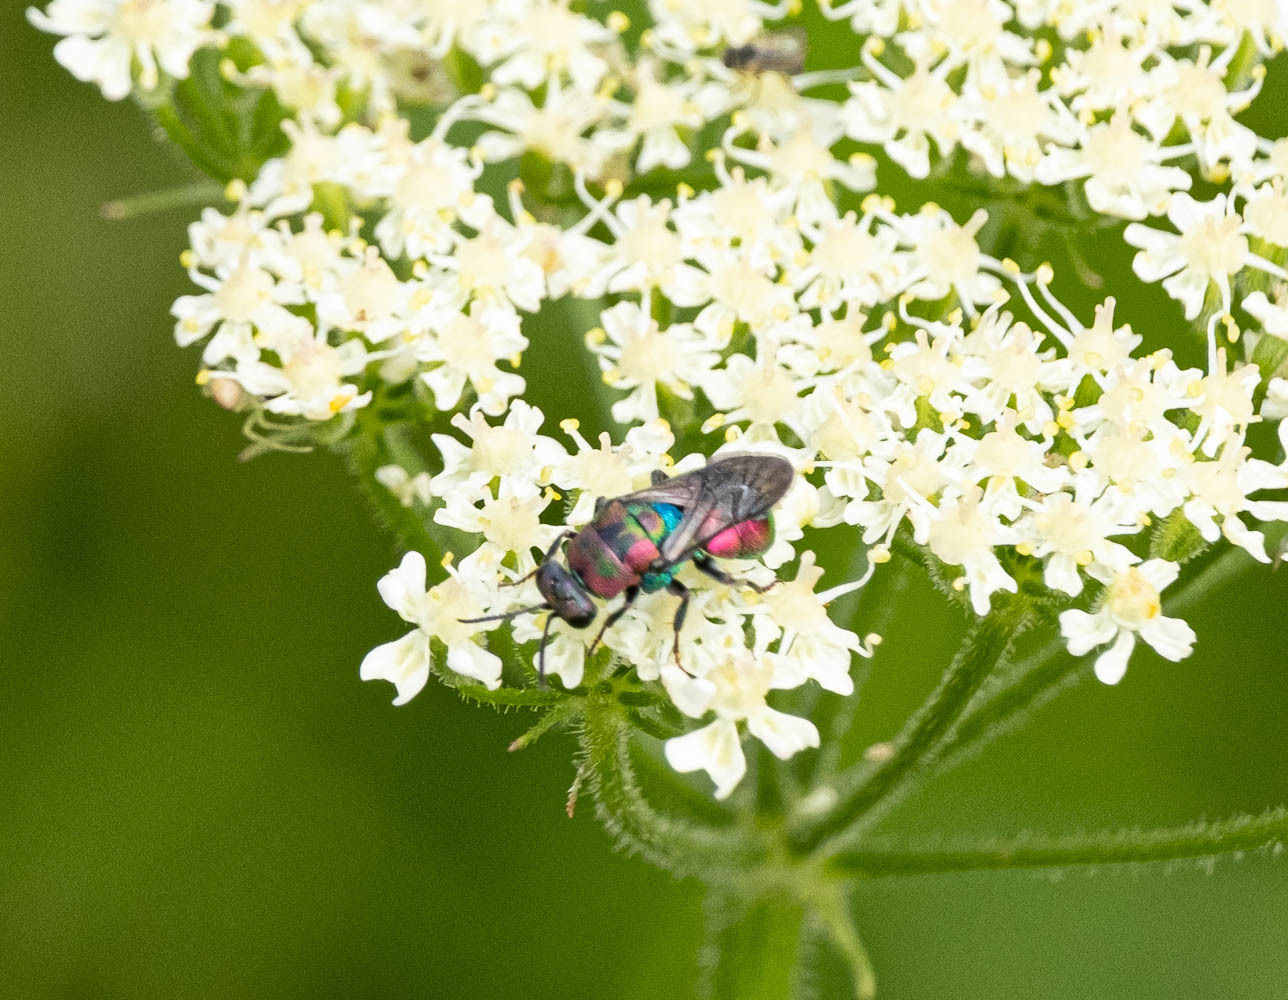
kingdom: Animalia
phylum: Arthropoda
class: Insecta
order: Hymenoptera
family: Chrysididae
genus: Hedychrum
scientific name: Hedychrum rutilans
